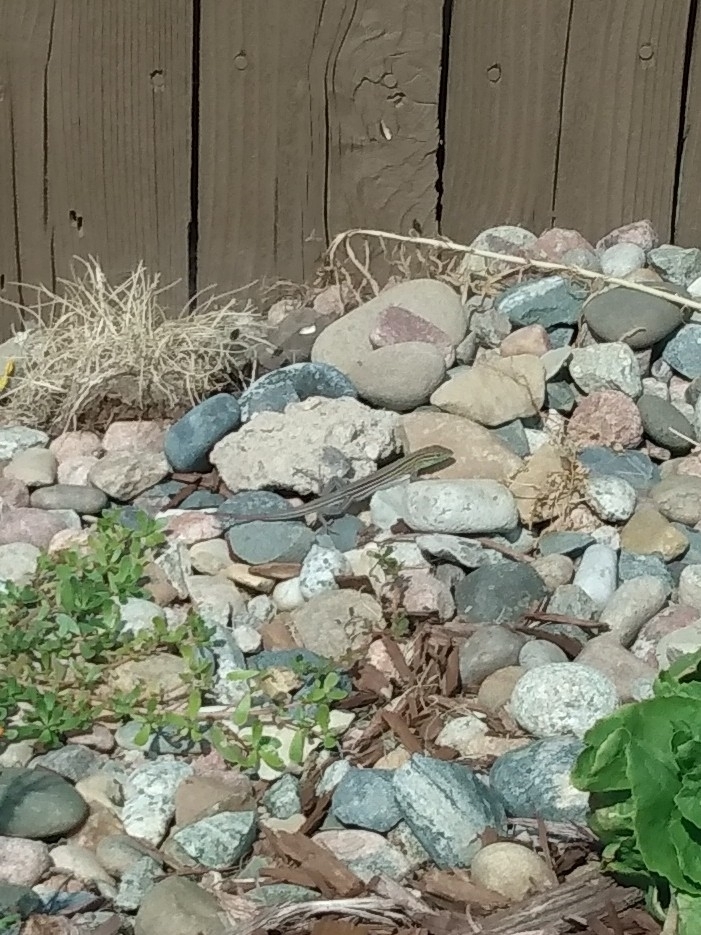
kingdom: Animalia
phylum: Chordata
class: Squamata
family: Teiidae
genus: Aspidoscelis
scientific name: Aspidoscelis sexlineatus
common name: Six-lined racerunner
